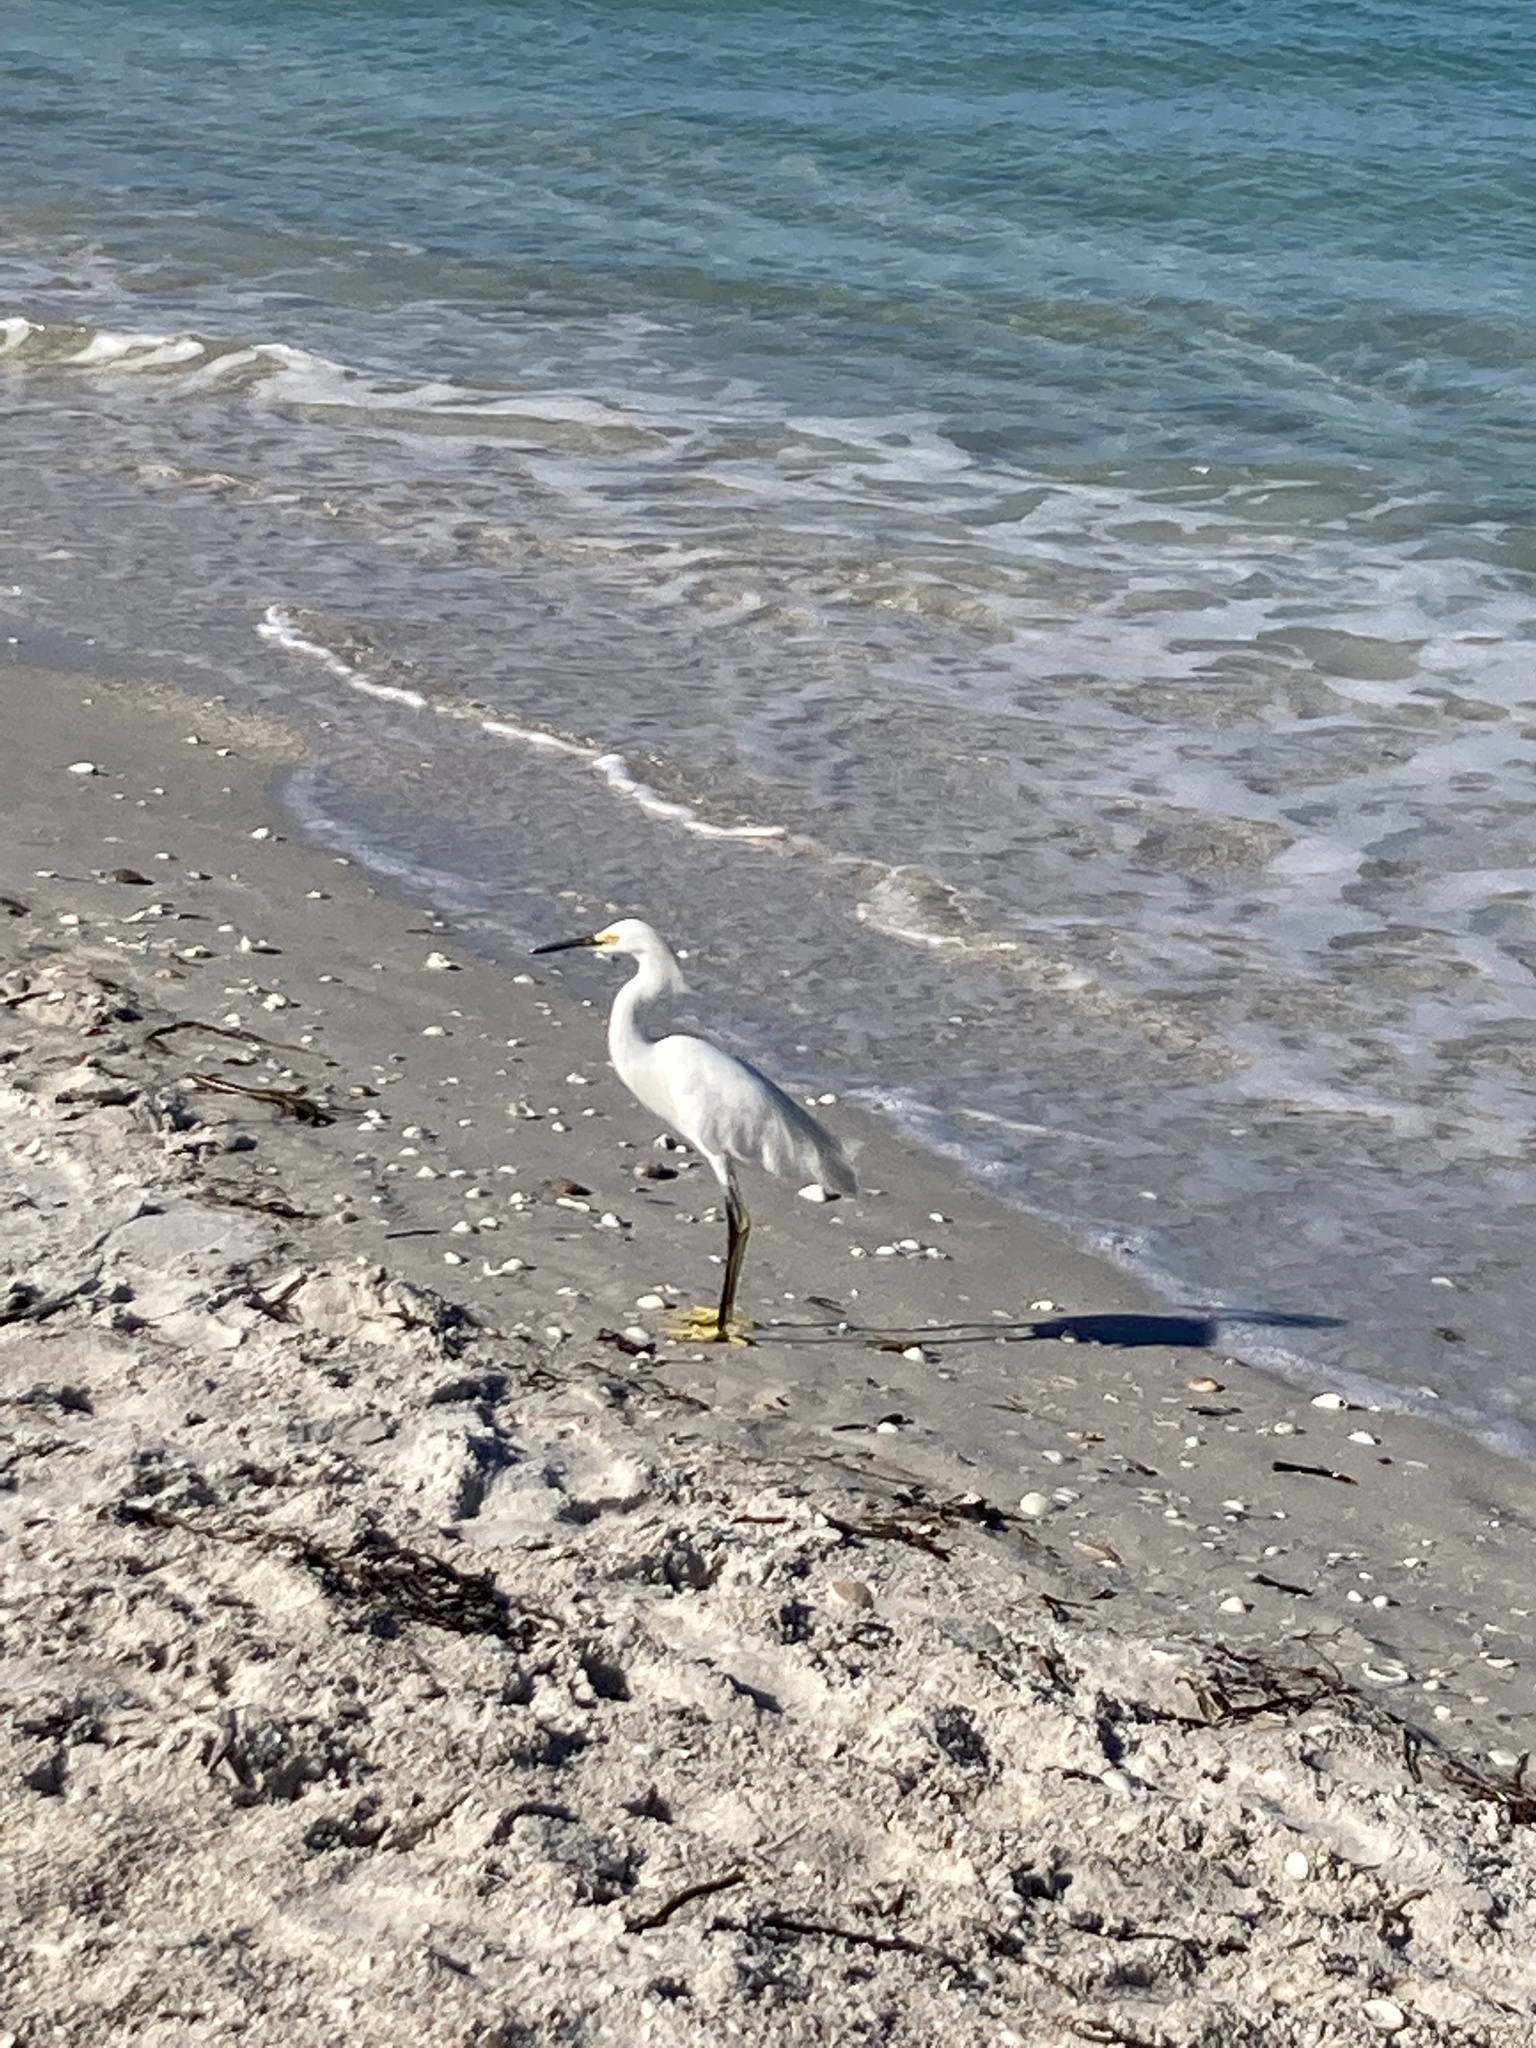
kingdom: Animalia
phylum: Chordata
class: Aves
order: Pelecaniformes
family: Ardeidae
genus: Egretta
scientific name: Egretta thula
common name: Snowy egret
